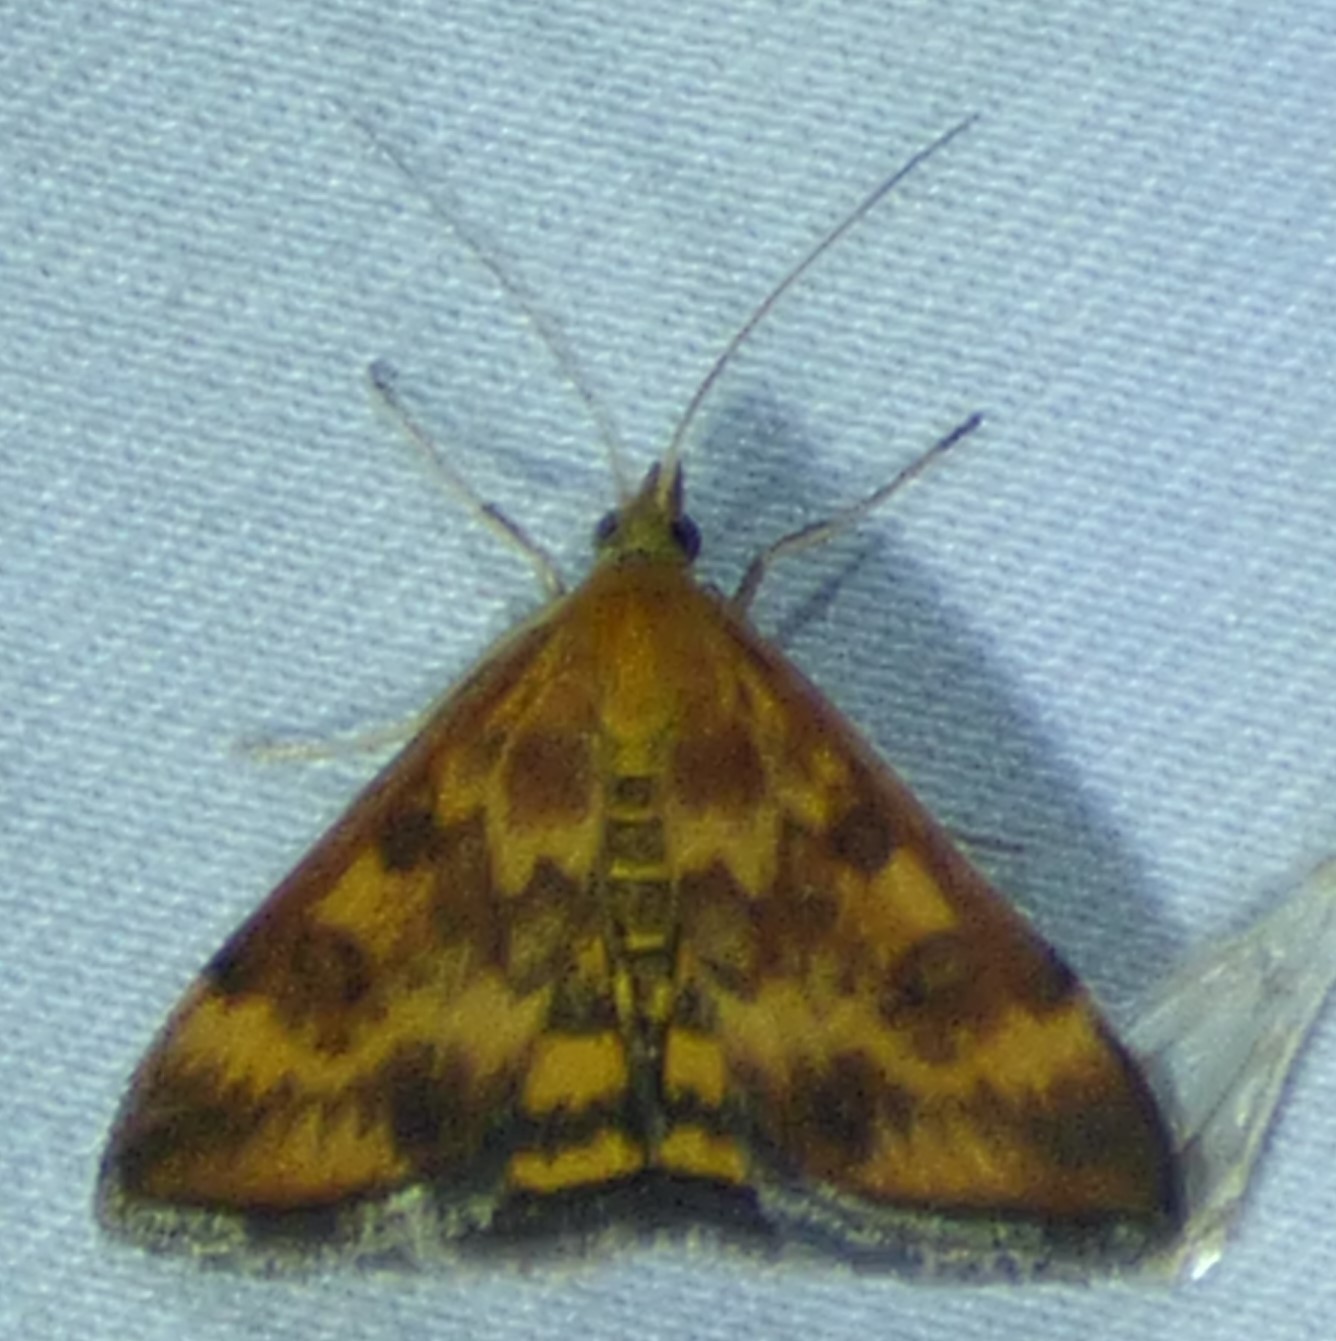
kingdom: Animalia
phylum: Arthropoda
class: Insecta
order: Lepidoptera
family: Crambidae
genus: Pyrausta
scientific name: Pyrausta subsequalis
